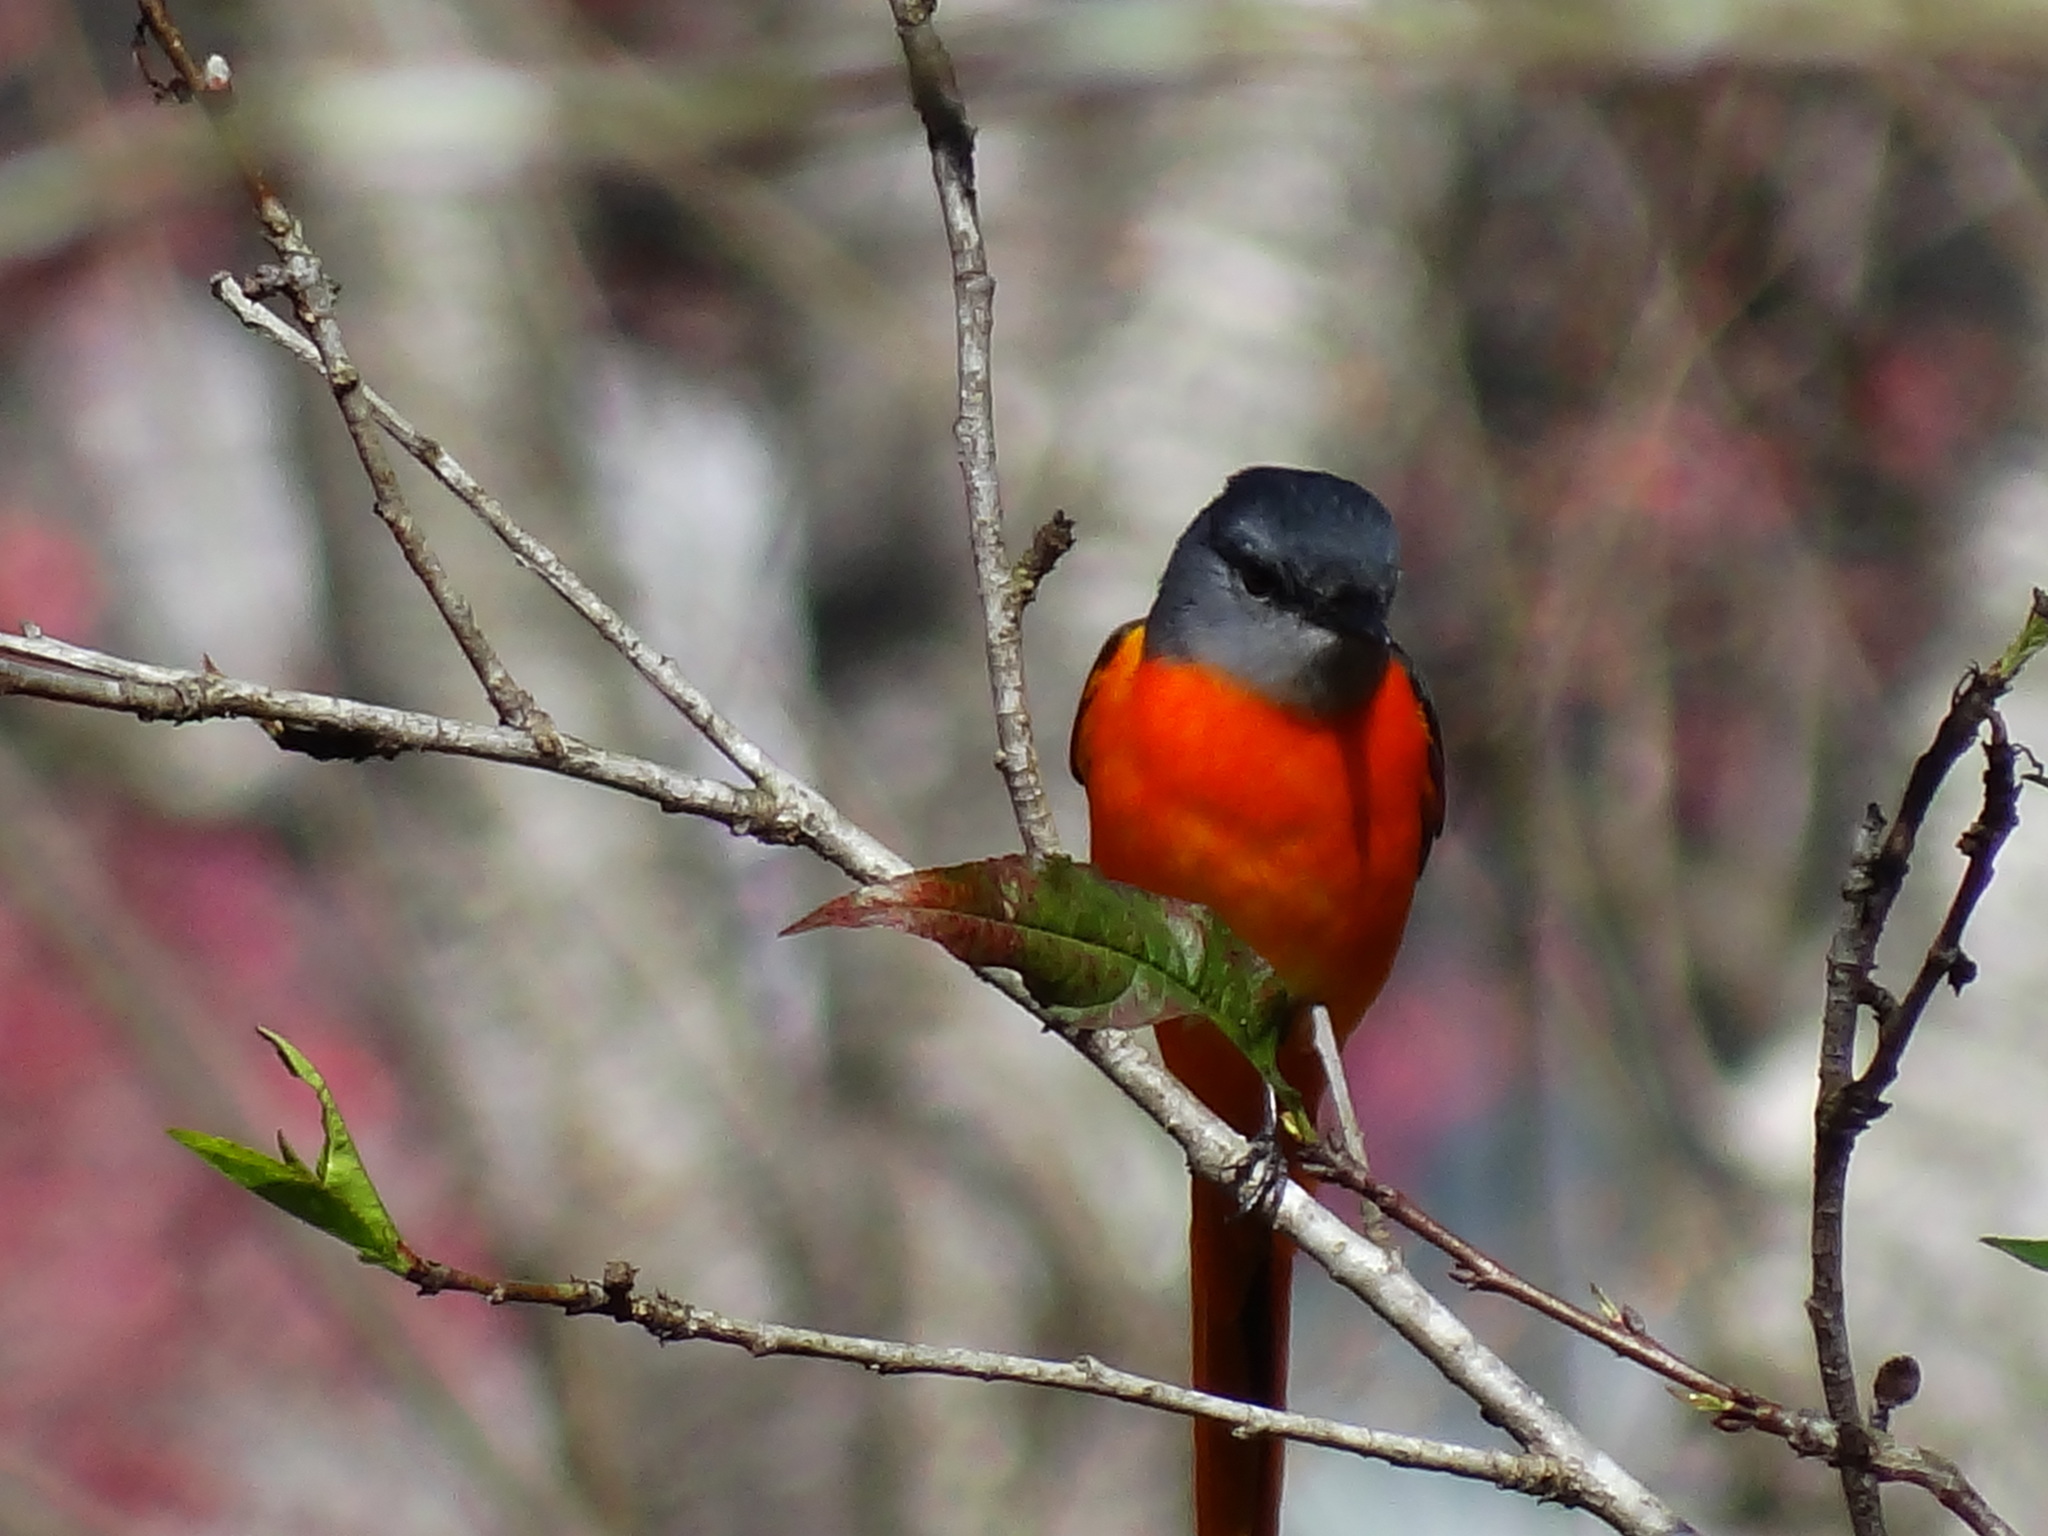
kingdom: Animalia
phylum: Chordata
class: Aves
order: Passeriformes
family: Campephagidae
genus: Pericrocotus
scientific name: Pericrocotus solaris
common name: Grey-chinned minivet
